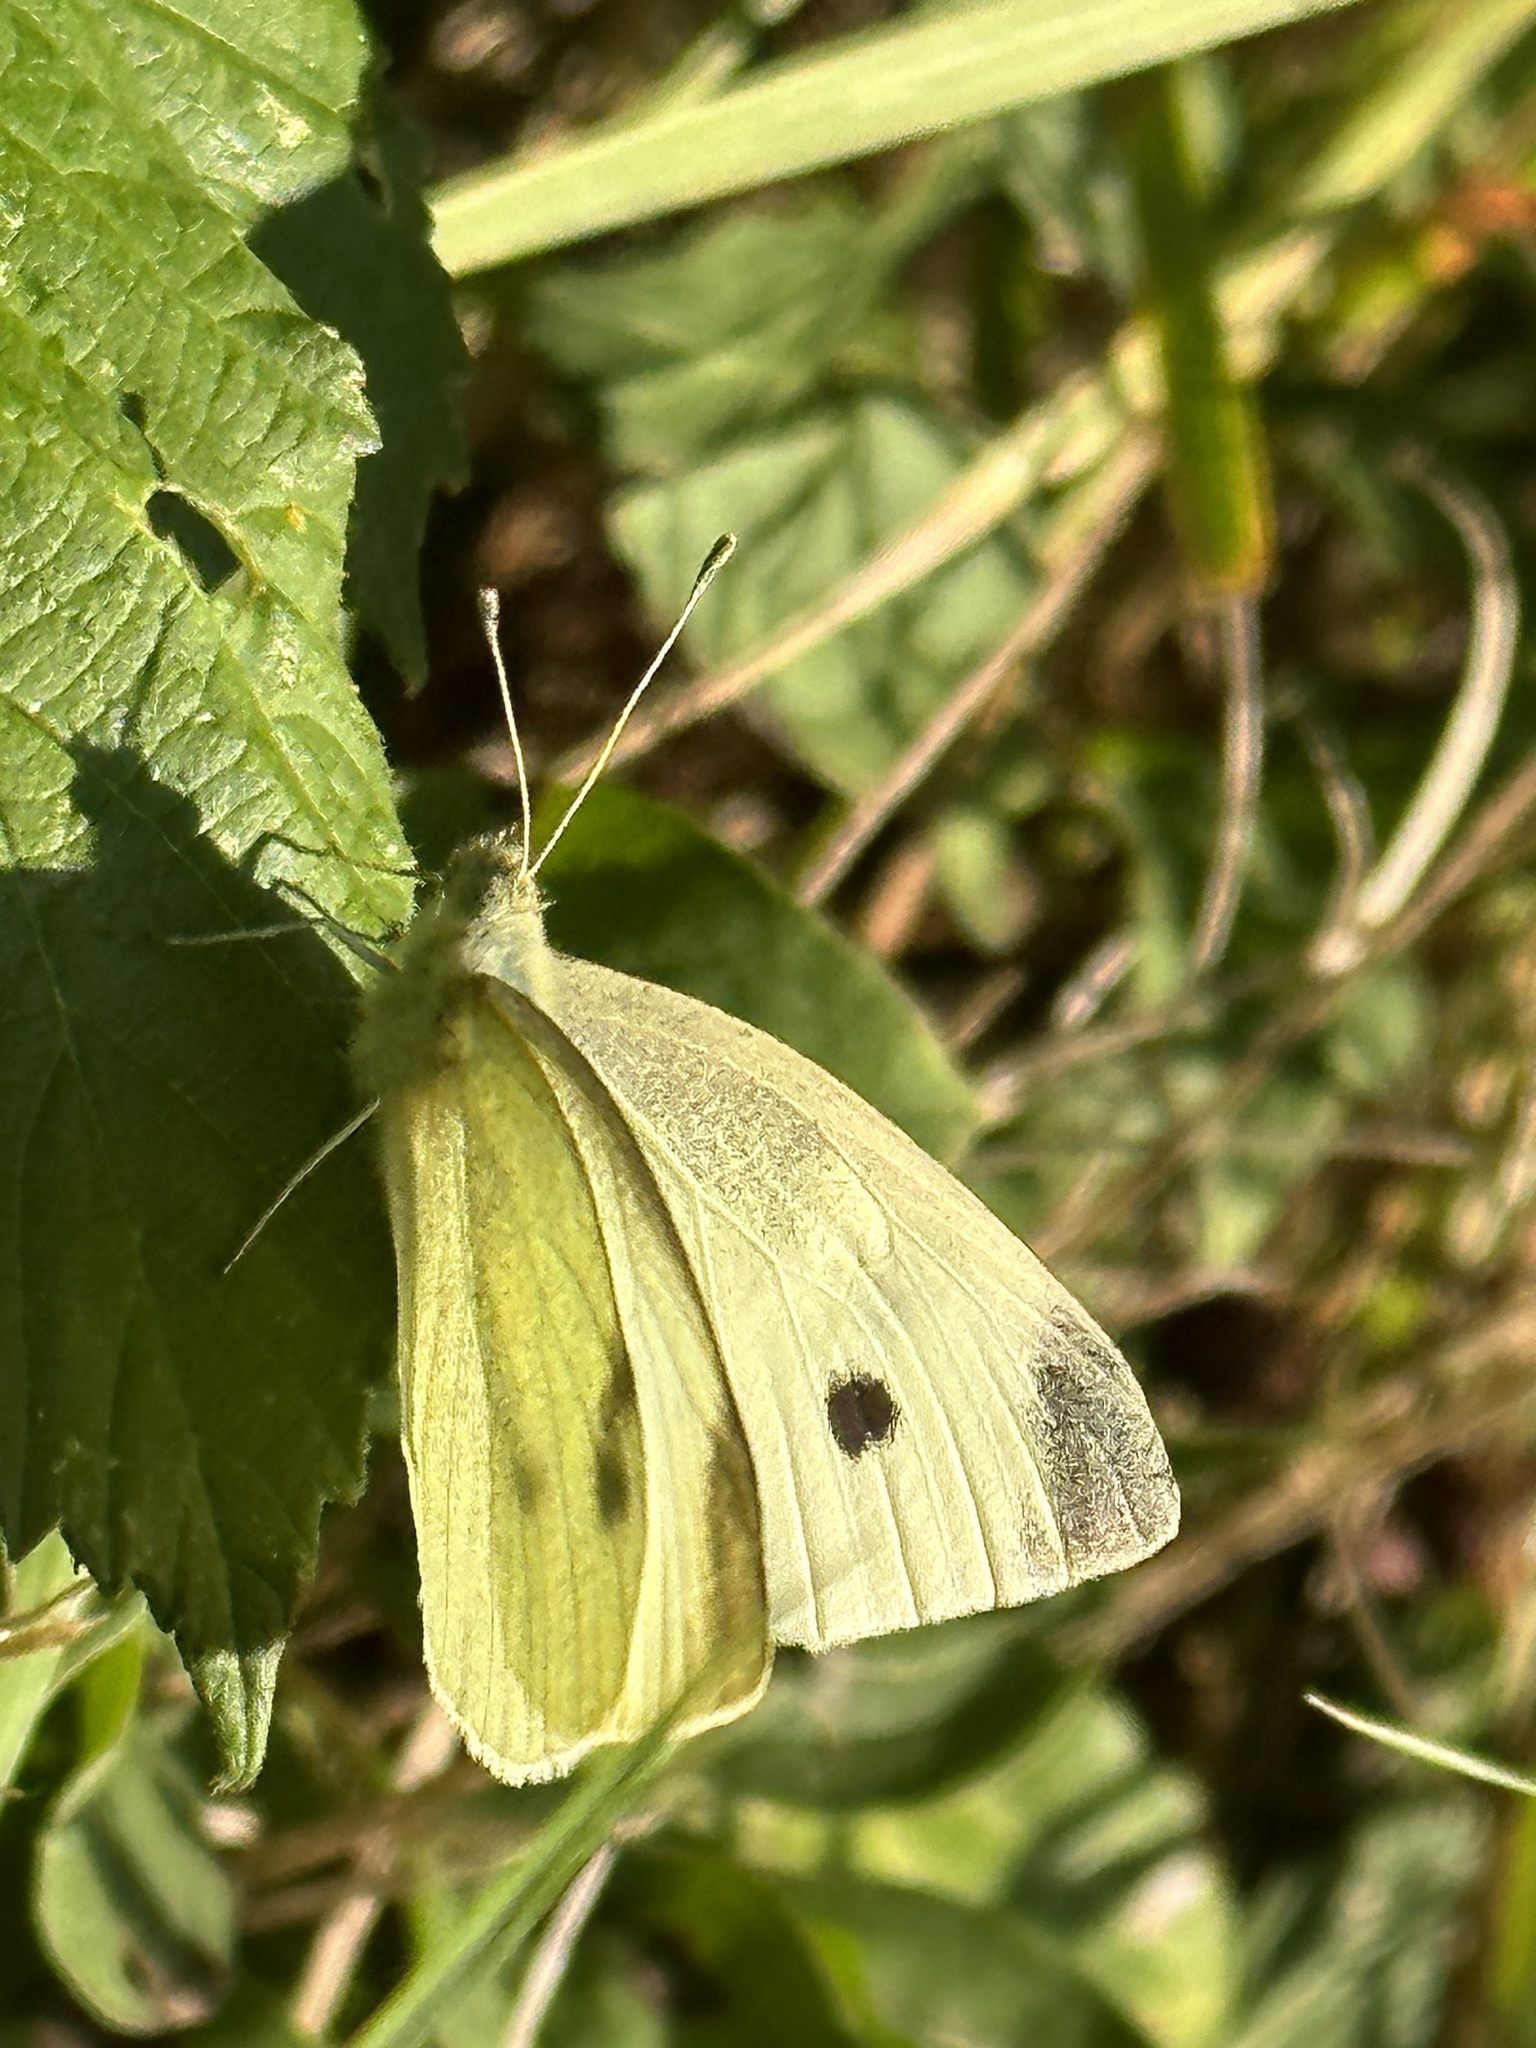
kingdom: Animalia
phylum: Arthropoda
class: Insecta
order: Lepidoptera
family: Pieridae
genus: Pieris
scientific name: Pieris rapae
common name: Small white
